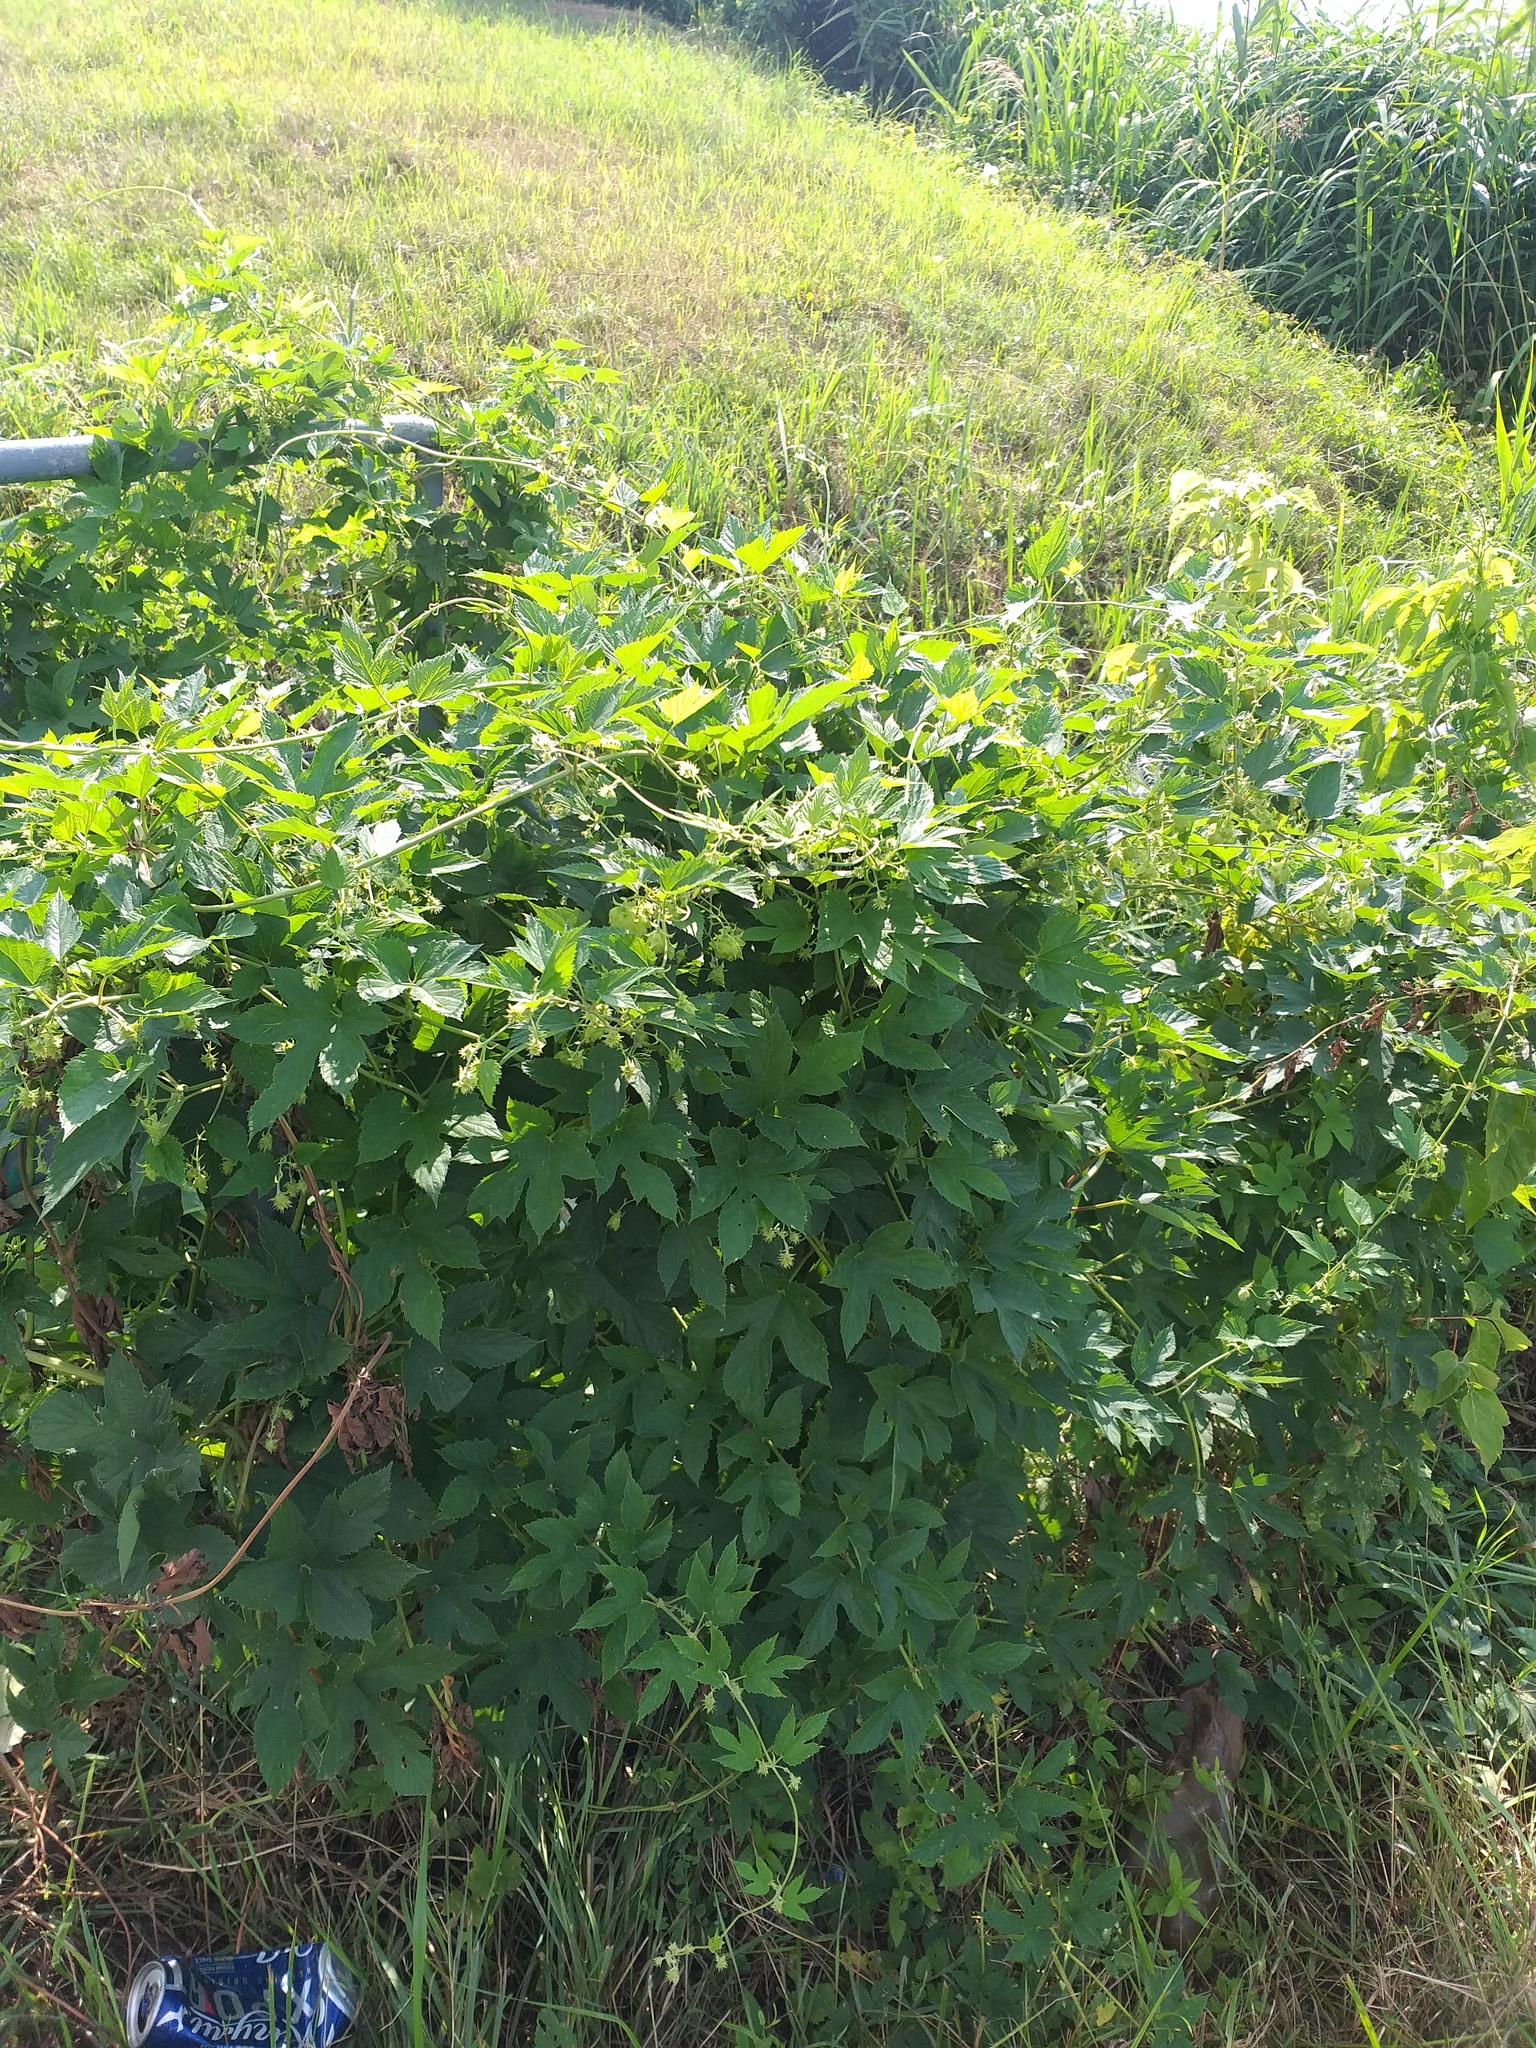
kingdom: Plantae
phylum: Tracheophyta
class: Magnoliopsida
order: Rosales
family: Cannabaceae
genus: Humulus
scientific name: Humulus lupulus
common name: Hop
